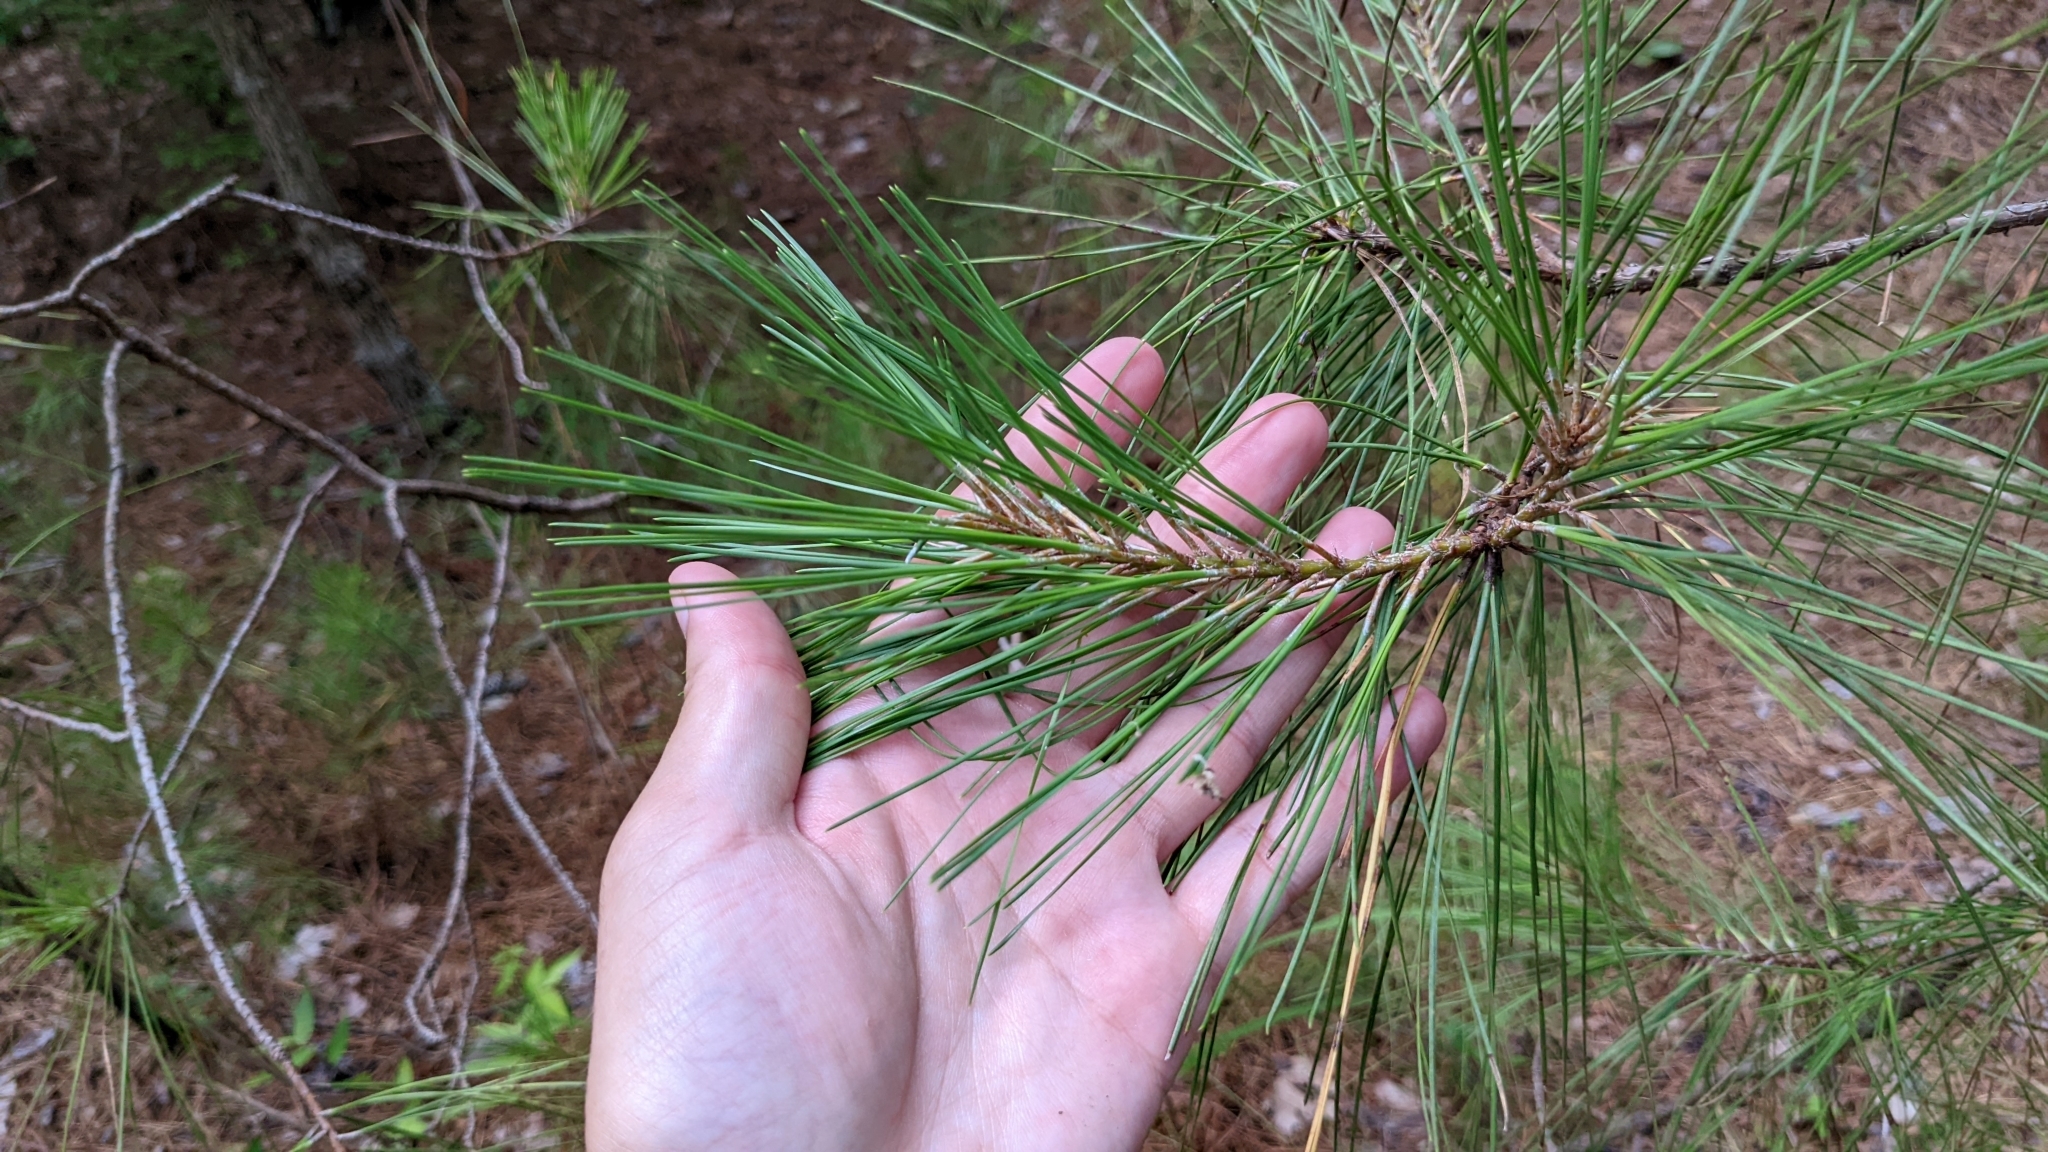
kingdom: Plantae
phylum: Tracheophyta
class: Pinopsida
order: Pinales
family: Pinaceae
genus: Pinus
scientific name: Pinus taeda
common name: Loblolly pine
